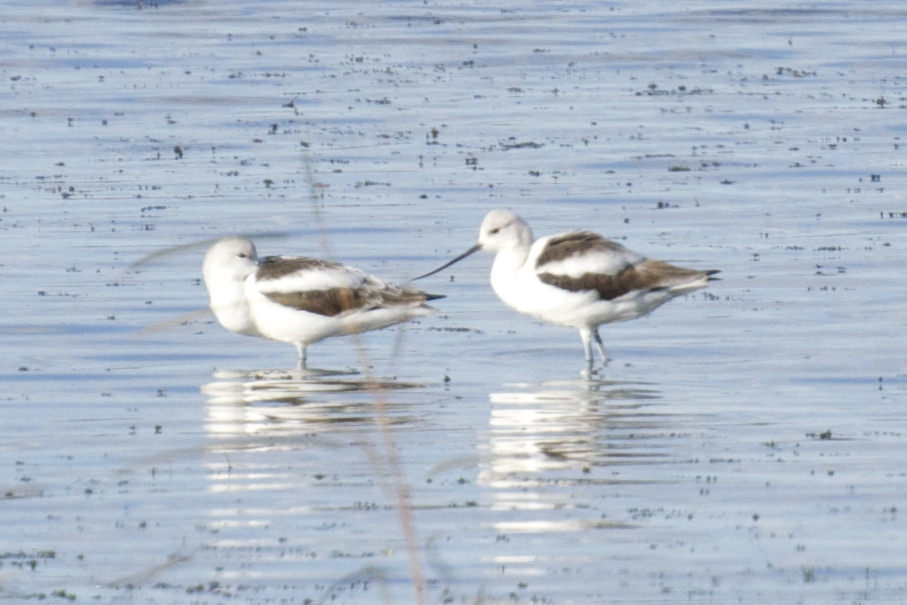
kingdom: Animalia
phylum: Chordata
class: Aves
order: Charadriiformes
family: Recurvirostridae
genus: Recurvirostra
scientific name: Recurvirostra americana
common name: American avocet
